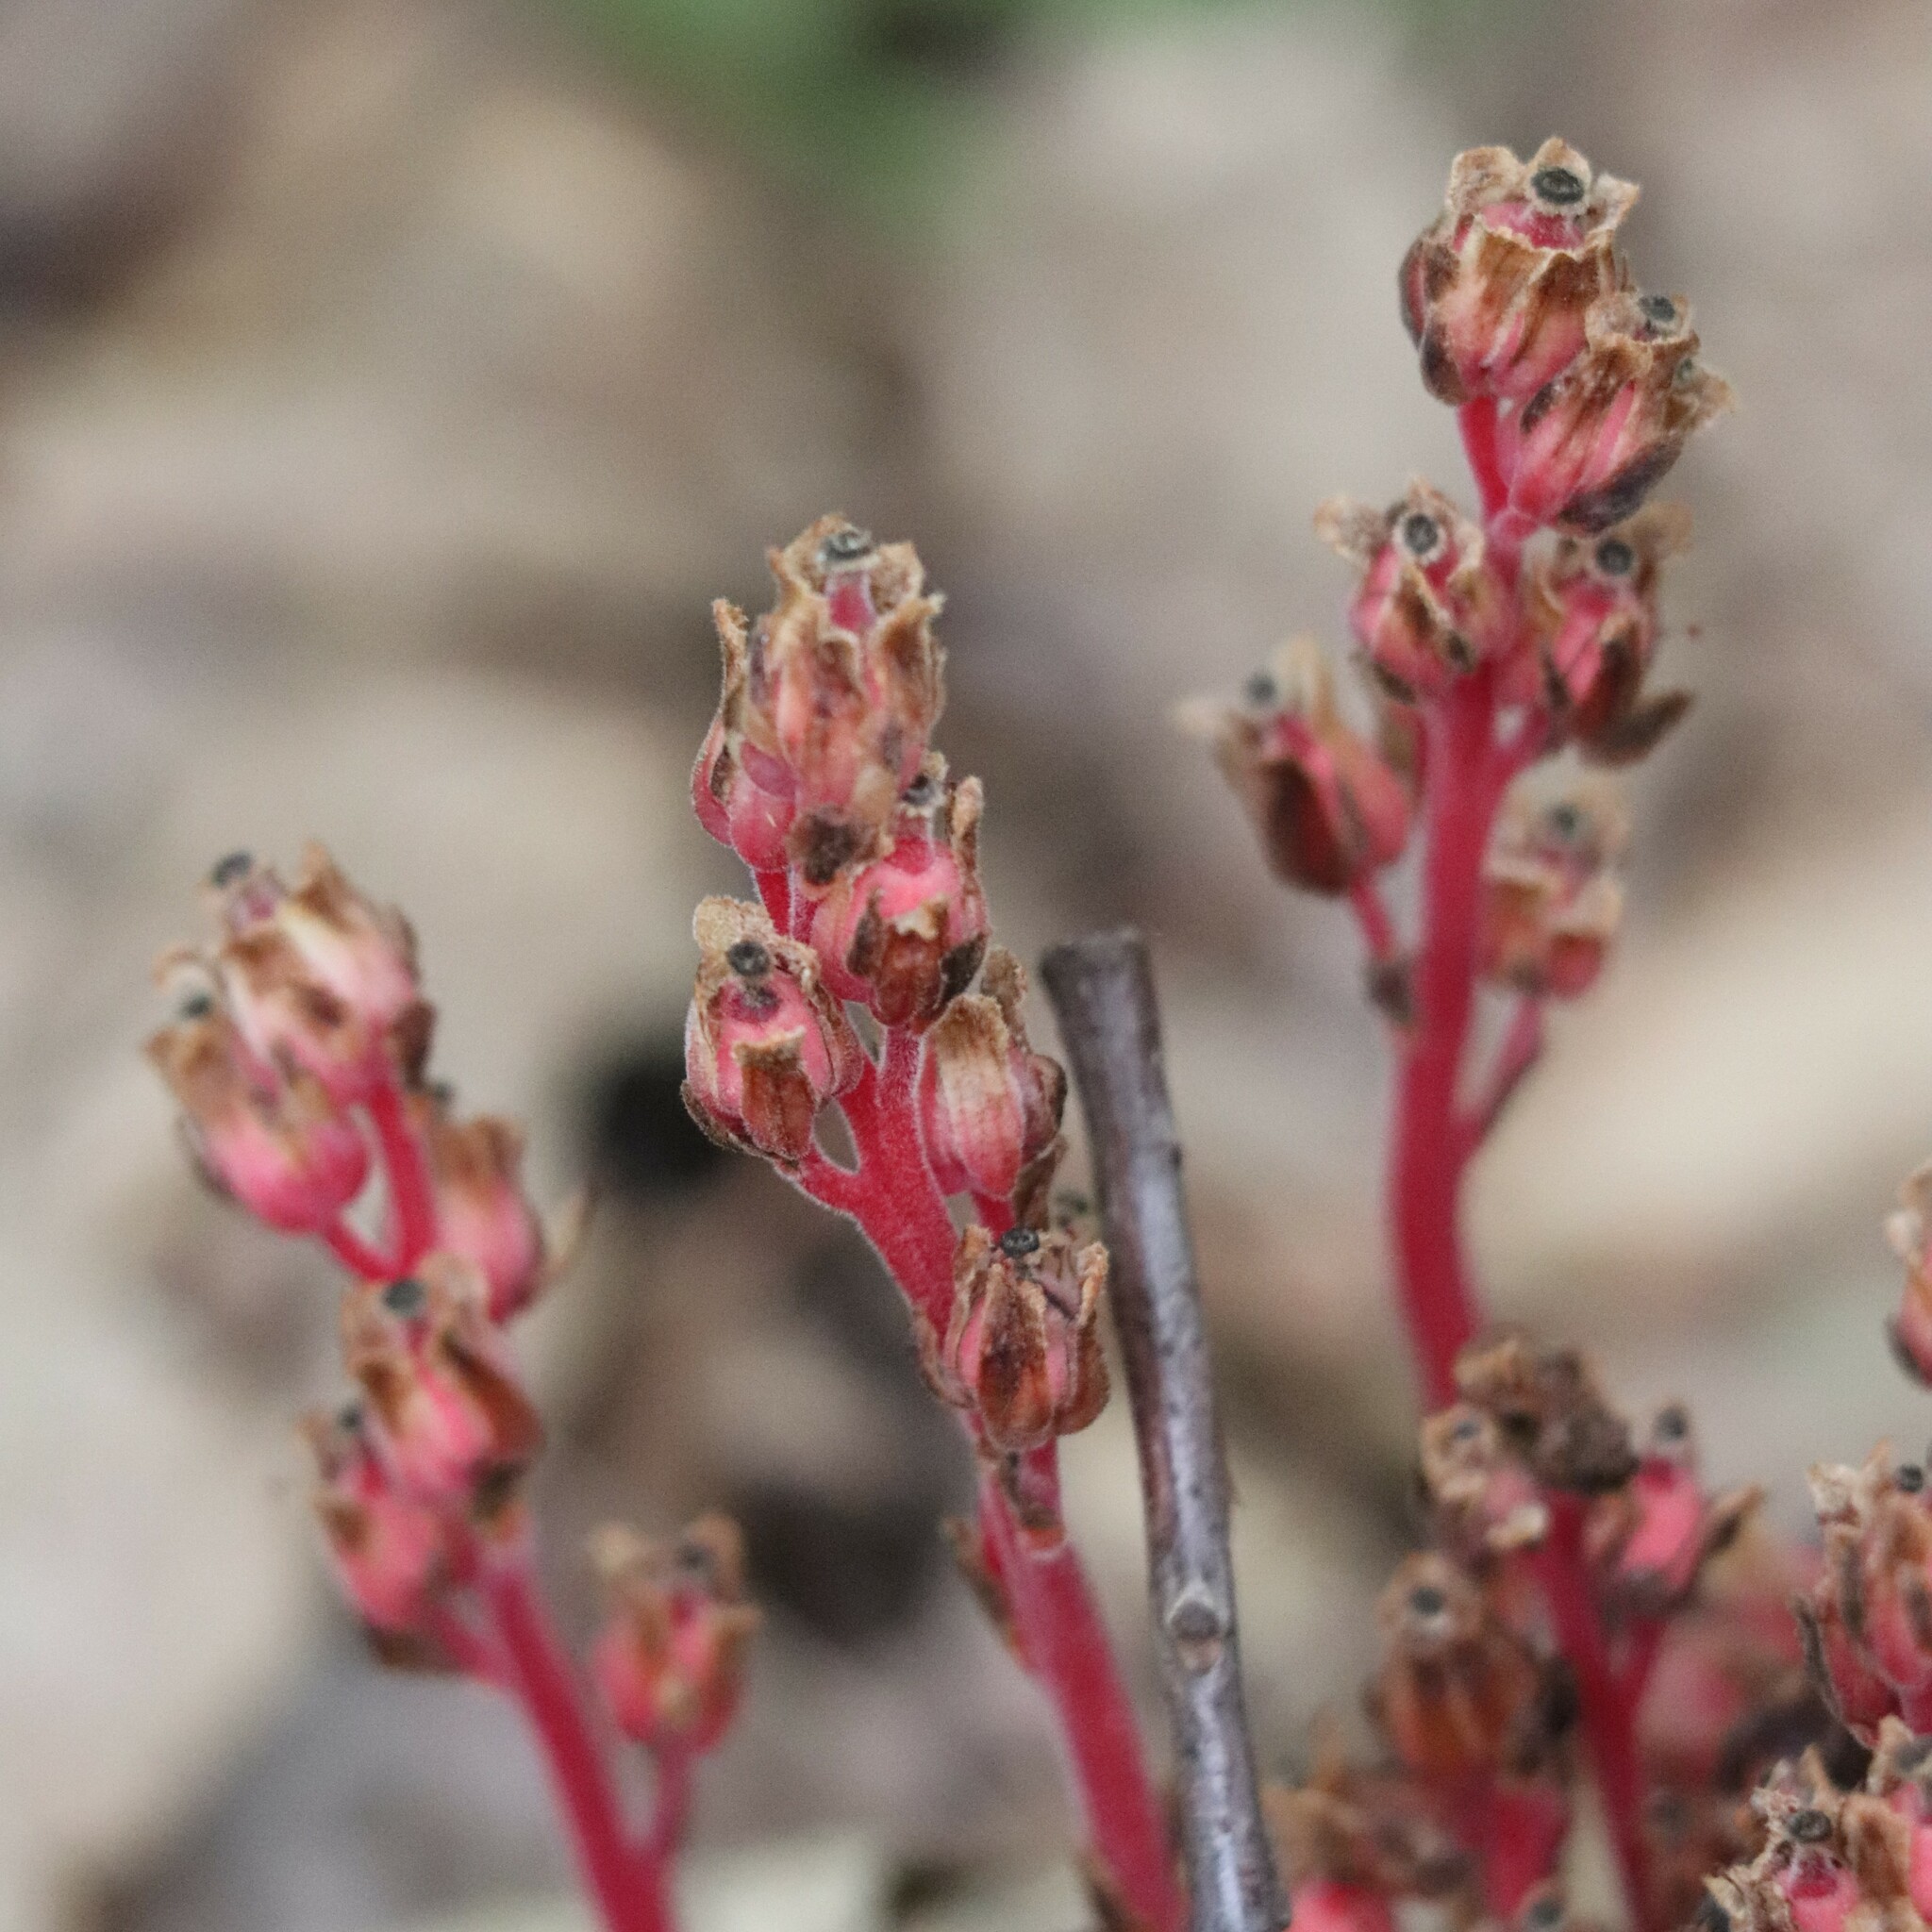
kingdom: Plantae
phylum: Tracheophyta
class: Magnoliopsida
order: Ericales
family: Ericaceae
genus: Hypopitys
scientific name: Hypopitys monotropa
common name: Yellow bird's-nest
